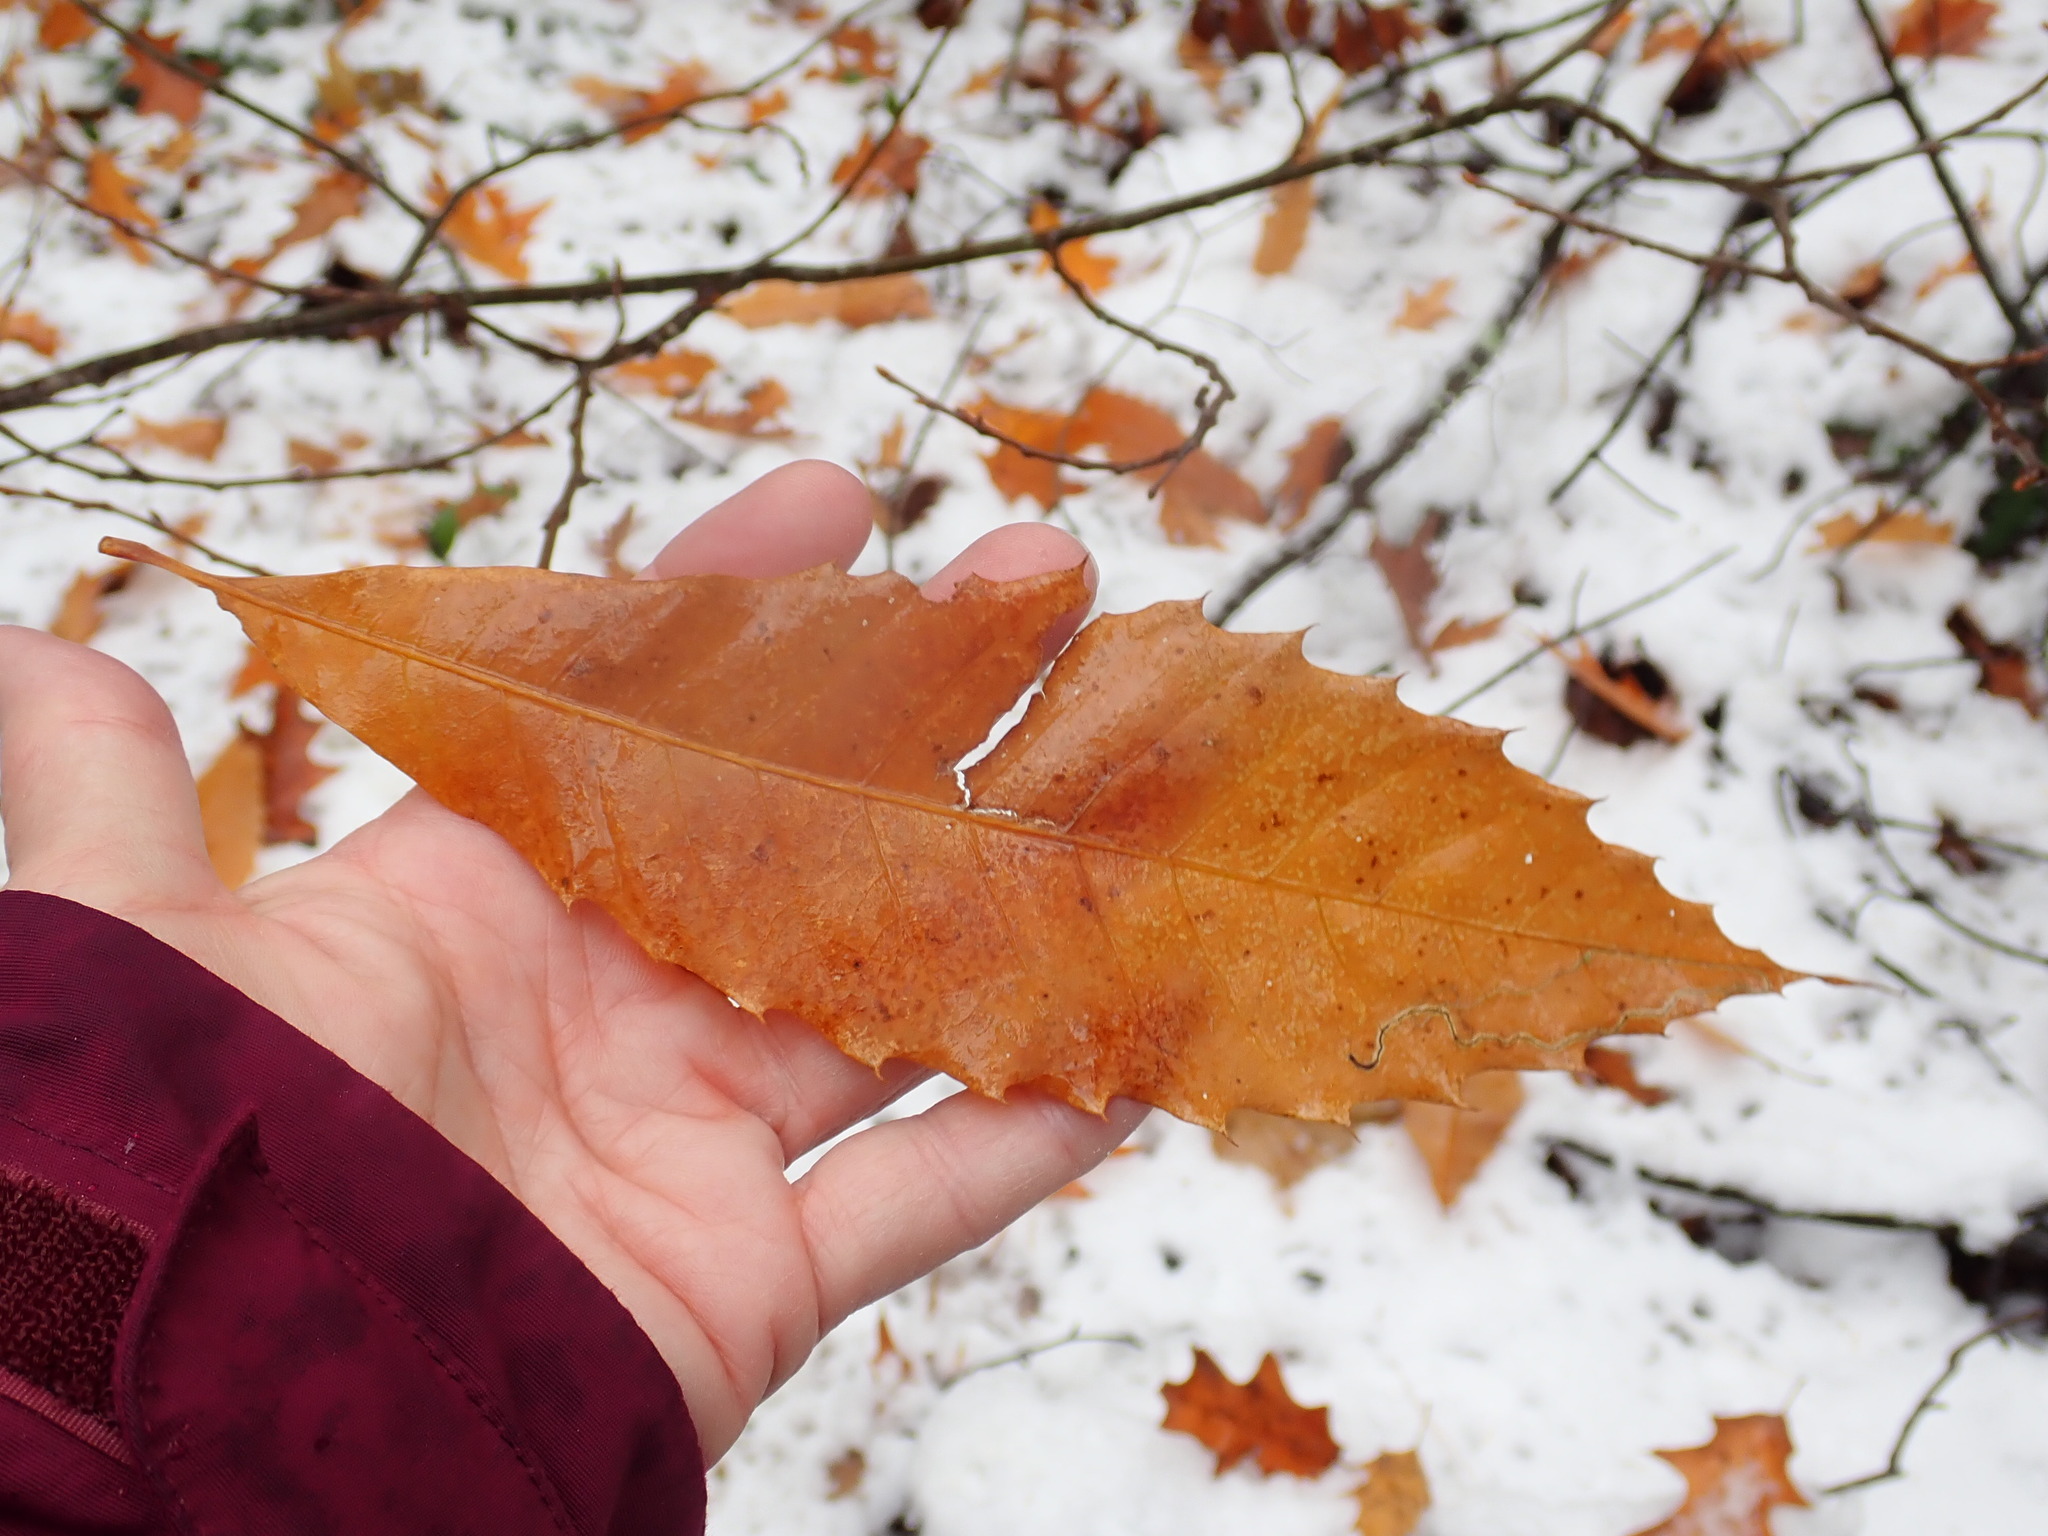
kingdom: Plantae
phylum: Tracheophyta
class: Magnoliopsida
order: Fagales
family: Fagaceae
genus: Castanea
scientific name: Castanea dentata
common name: American chestnut
